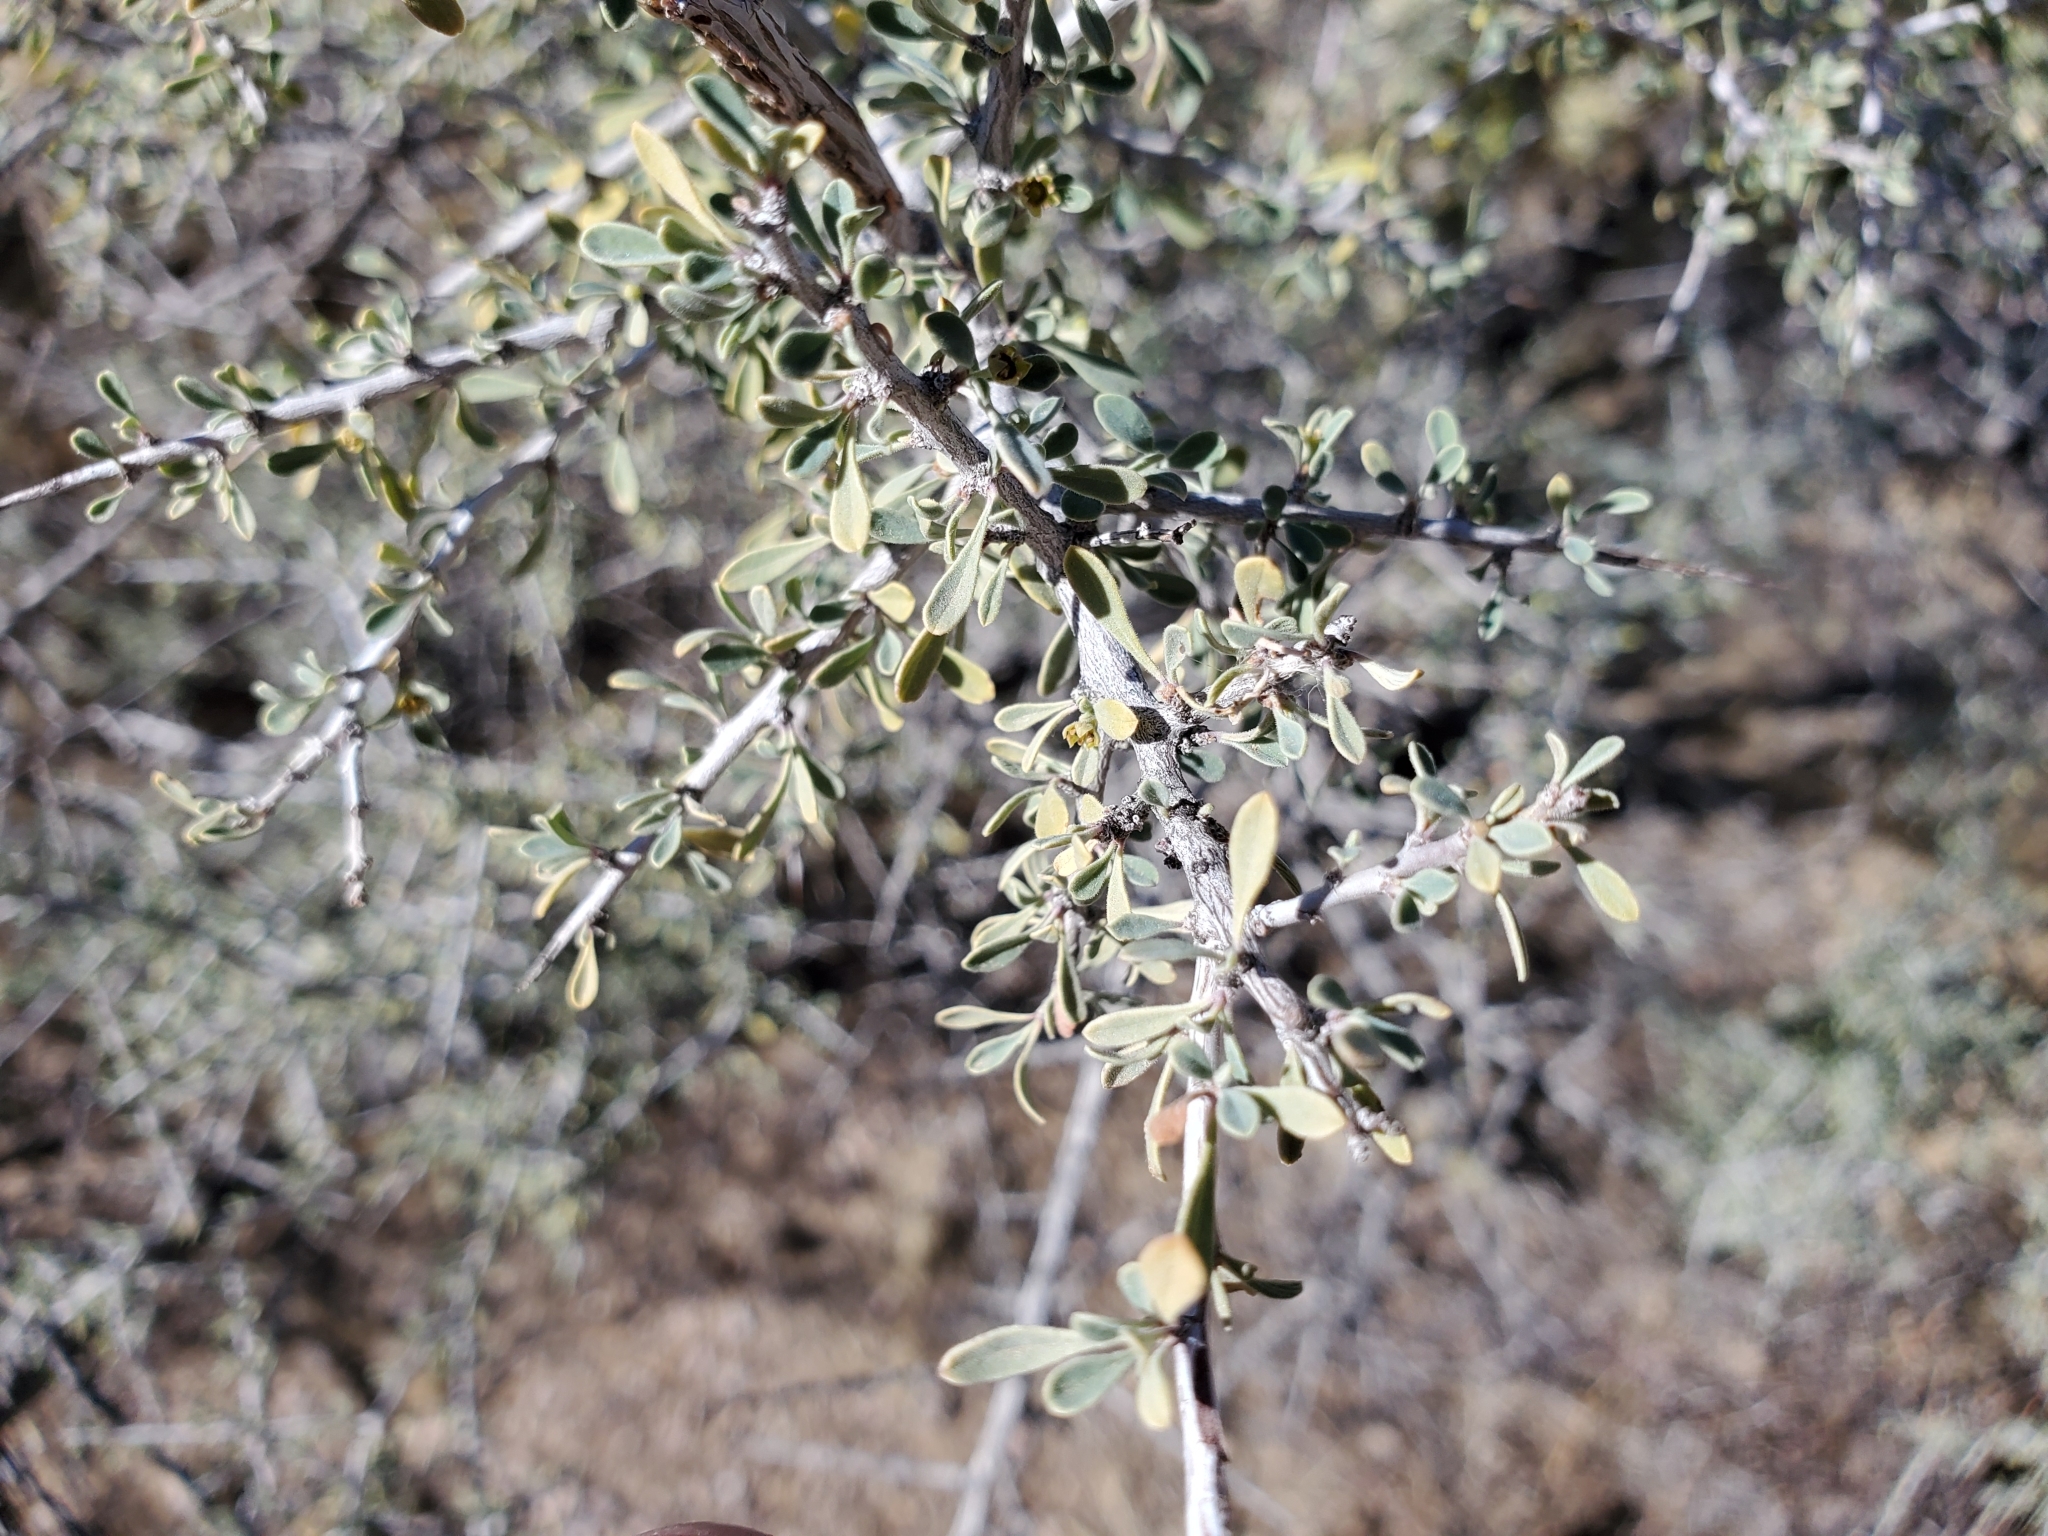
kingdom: Plantae
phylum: Tracheophyta
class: Magnoliopsida
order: Rosales
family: Rhamnaceae
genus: Condalia
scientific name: Condalia globosa
